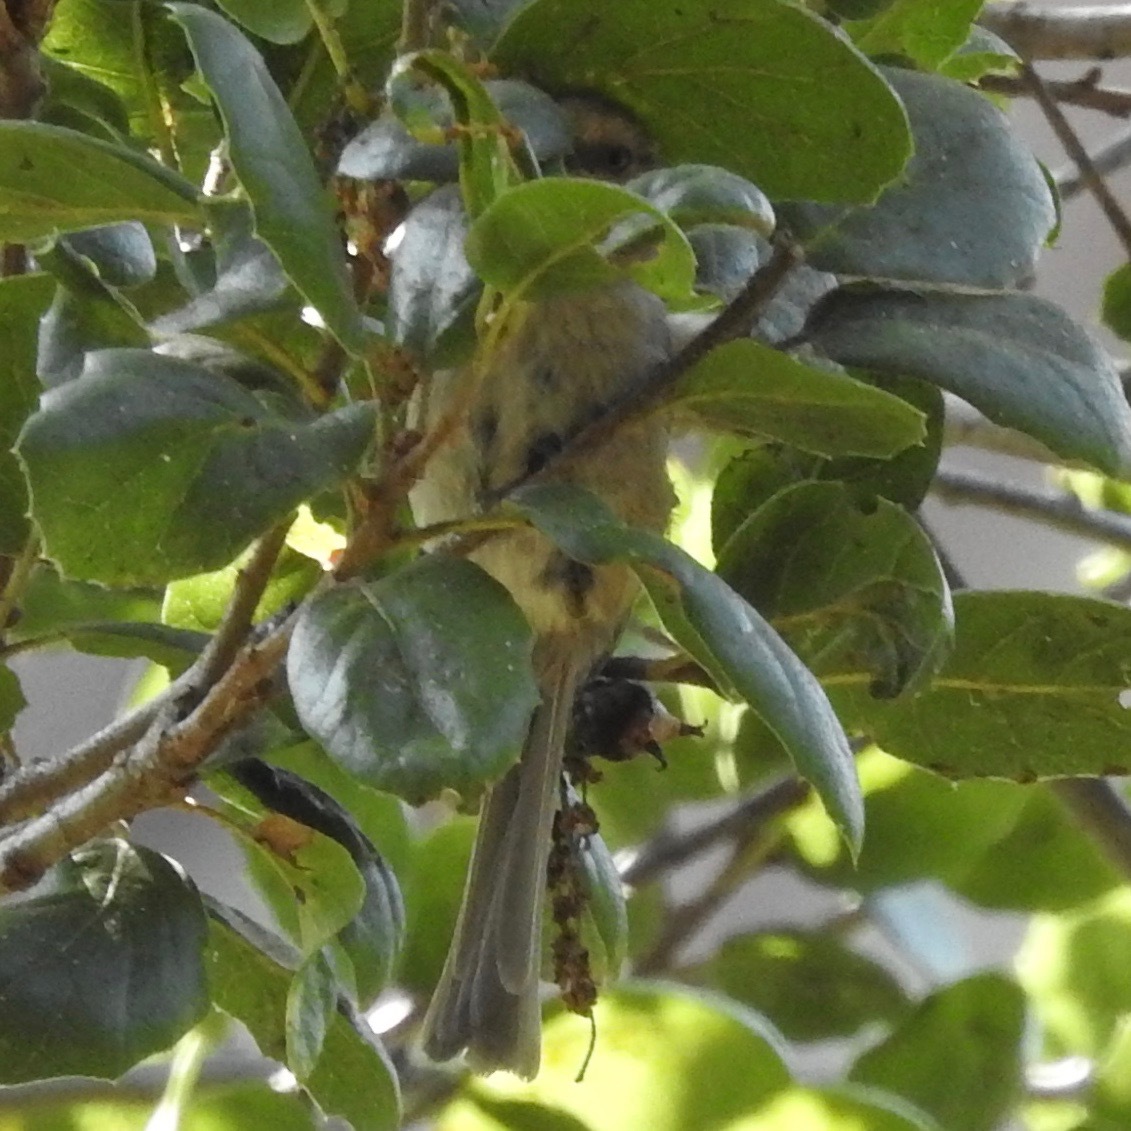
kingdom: Animalia
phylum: Chordata
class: Aves
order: Passeriformes
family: Paridae
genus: Baeolophus
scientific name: Baeolophus inornatus
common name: Oak titmouse
